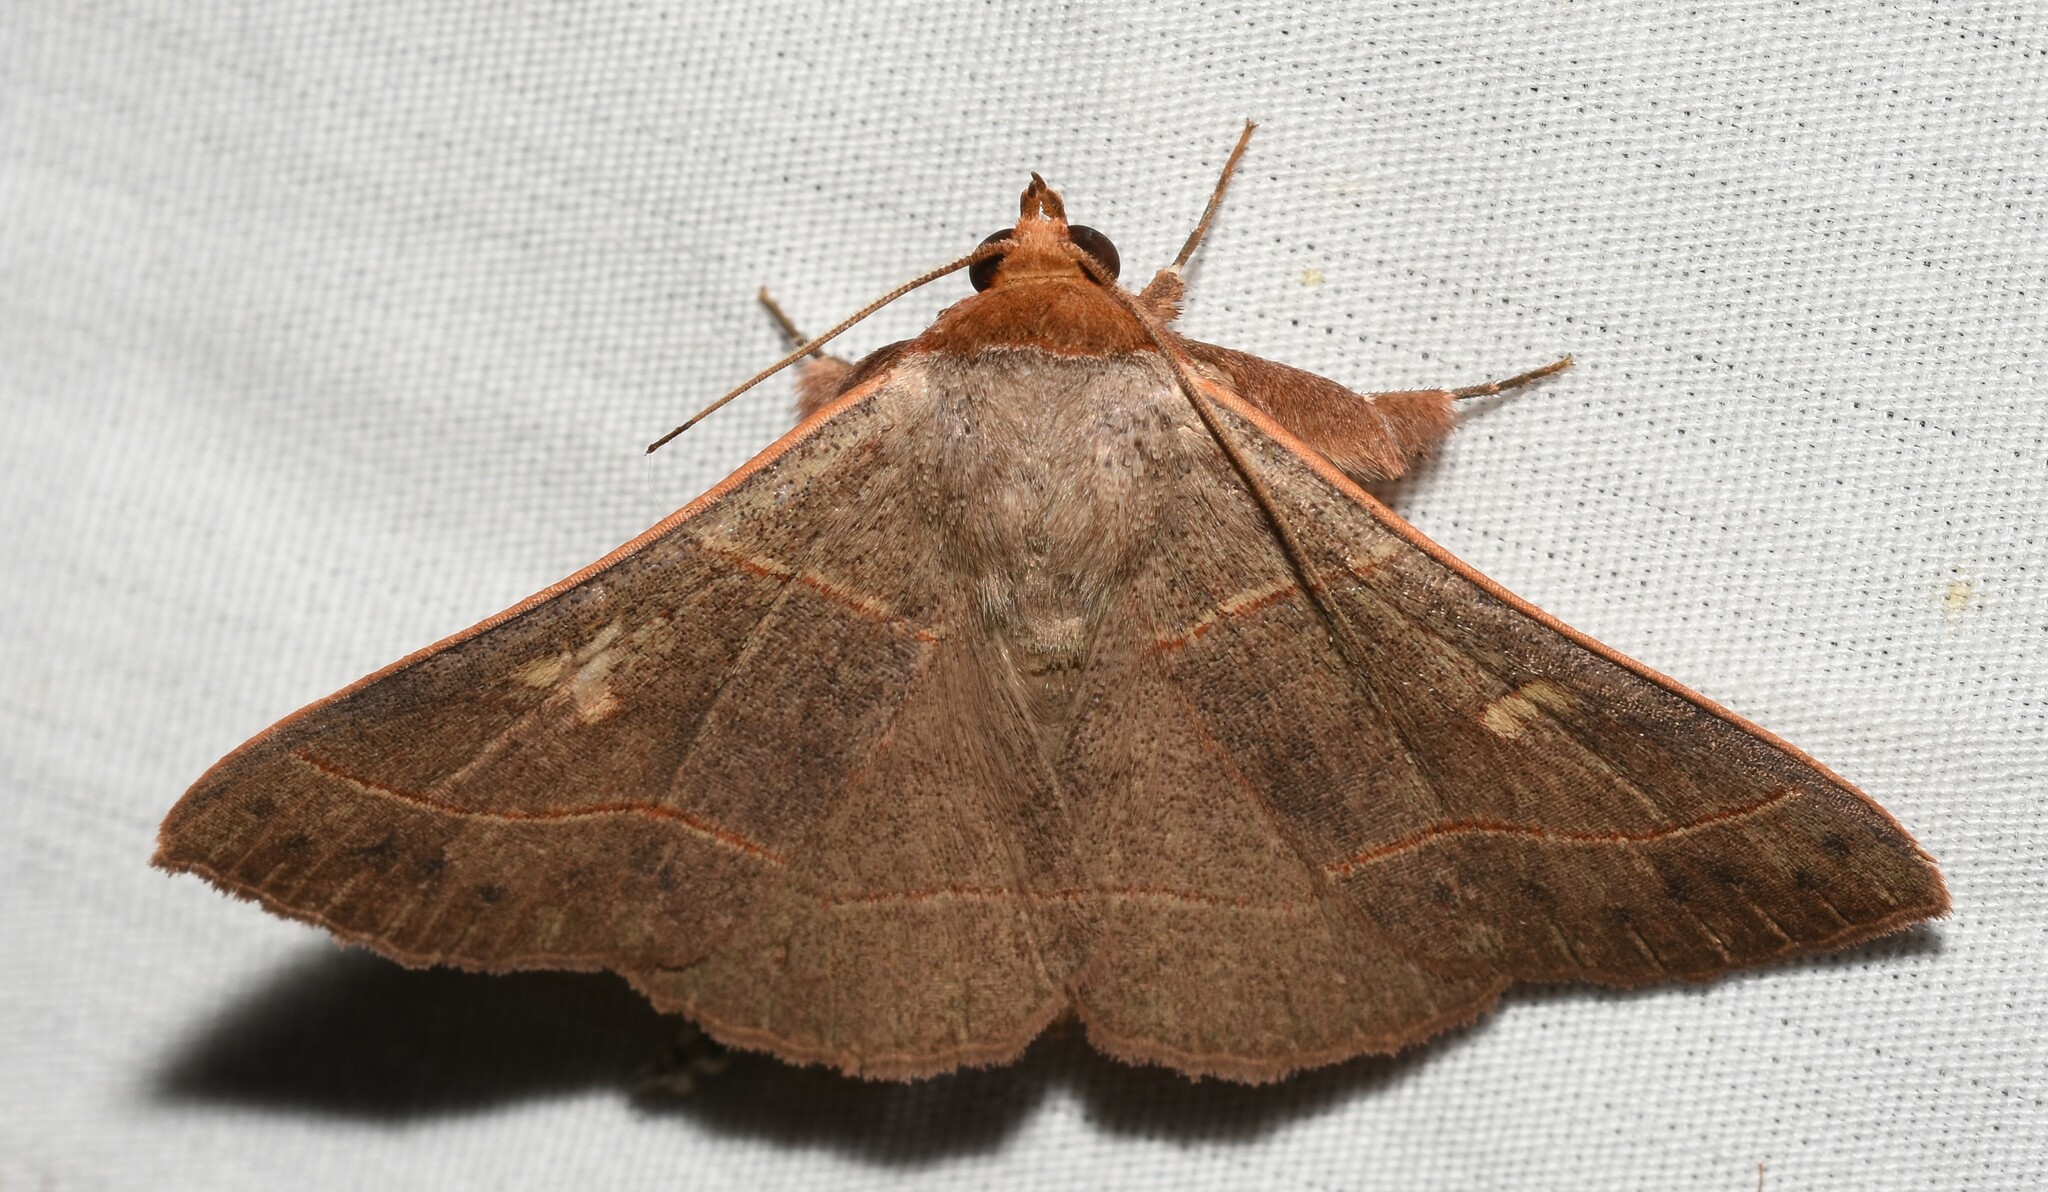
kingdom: Animalia
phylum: Arthropoda
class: Insecta
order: Lepidoptera
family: Erebidae
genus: Panopoda
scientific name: Panopoda rufimargo
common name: Red-lined panopoda moth
